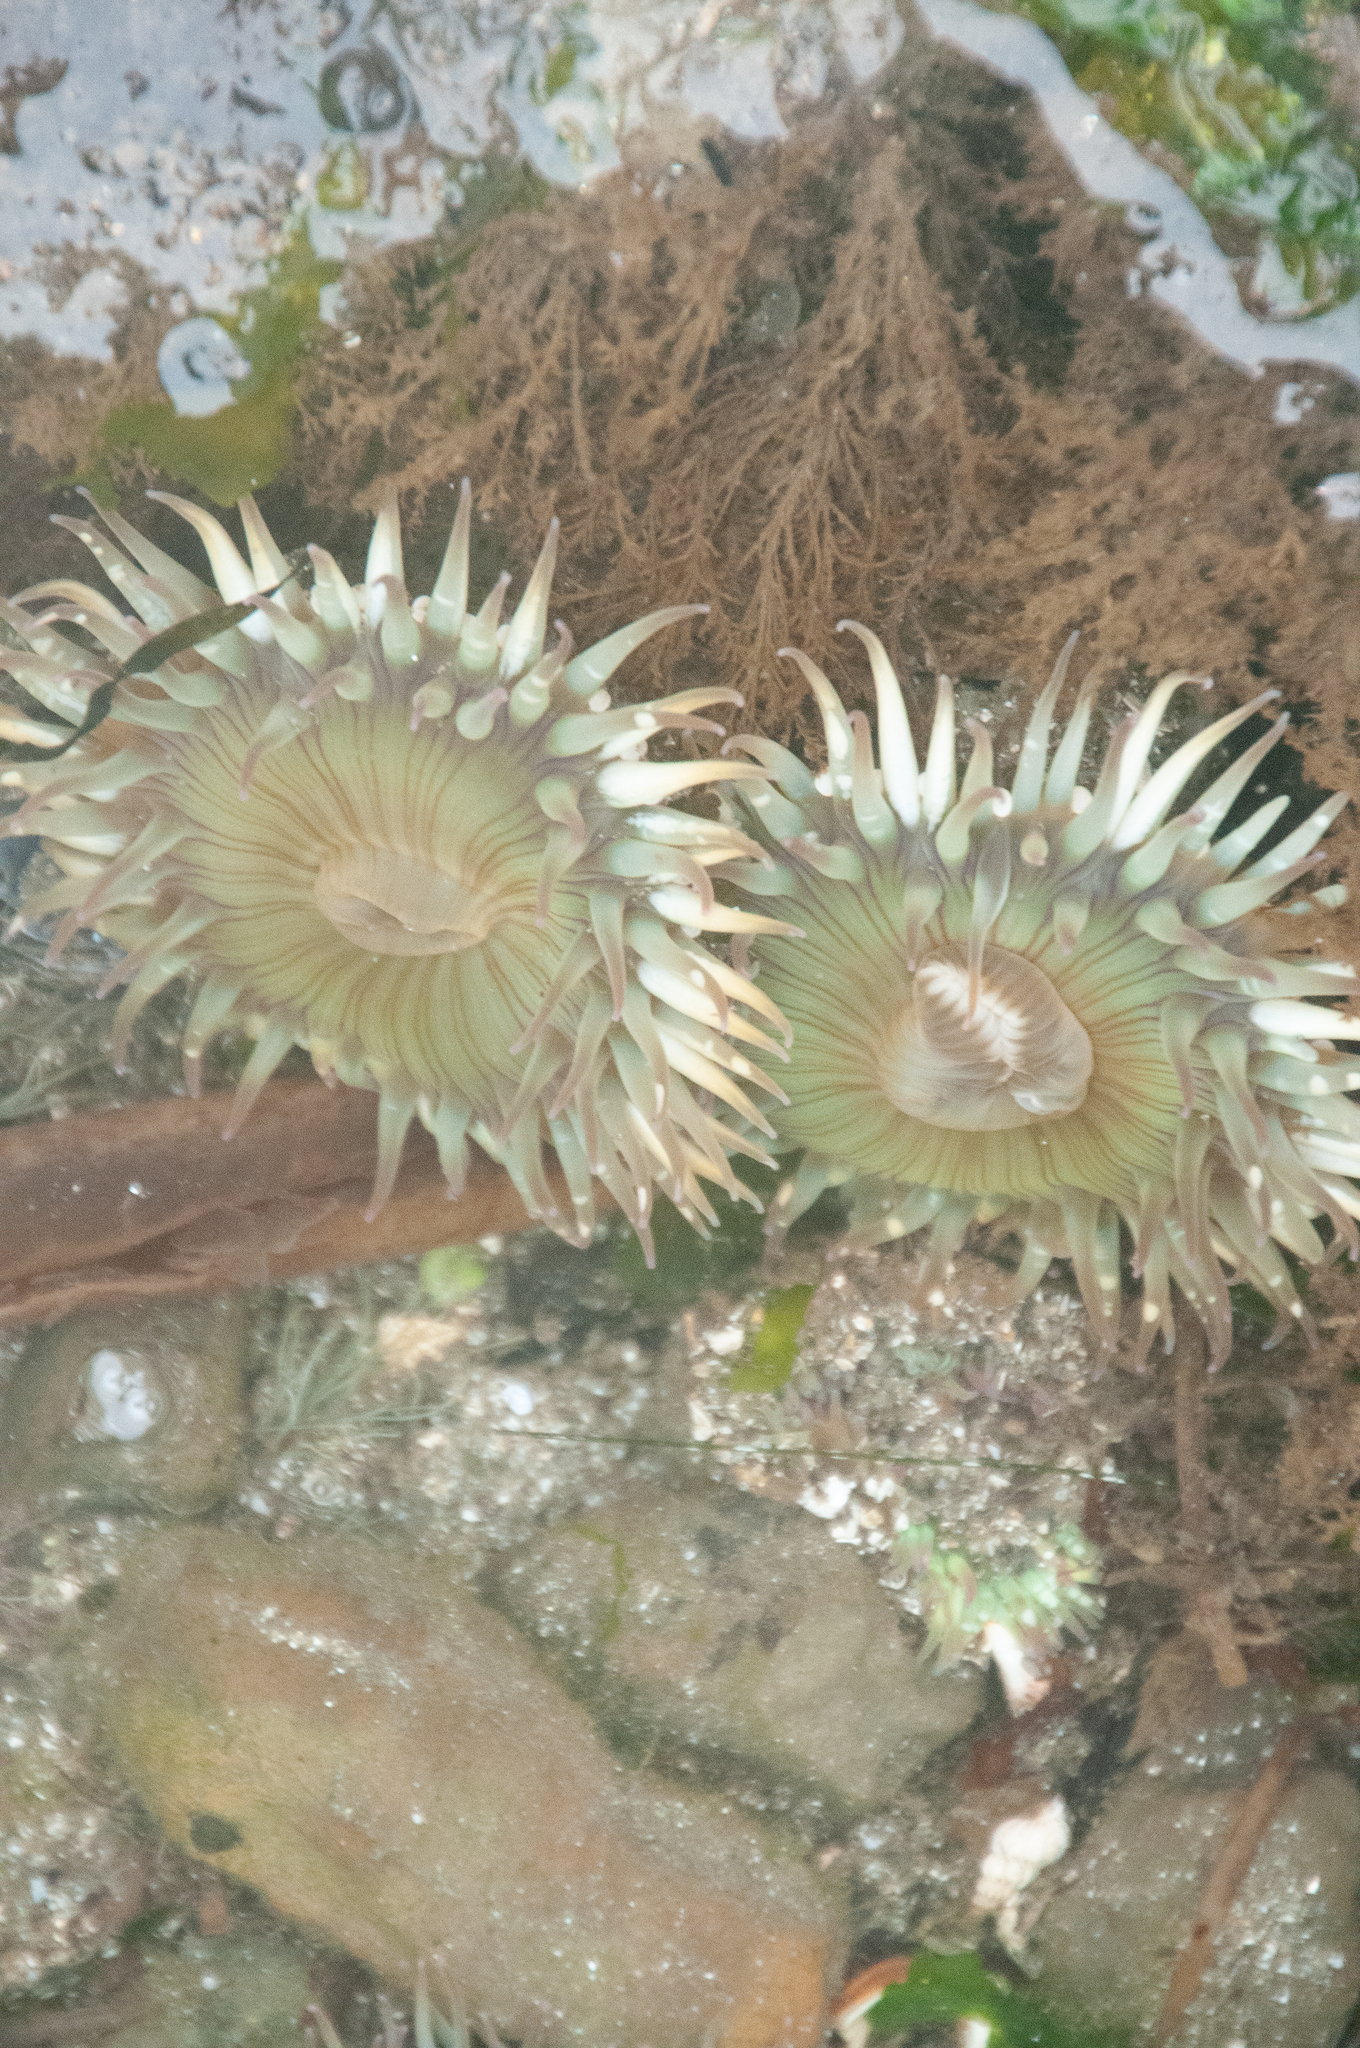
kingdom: Animalia
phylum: Cnidaria
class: Anthozoa
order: Actiniaria
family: Actiniidae
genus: Anthopleura
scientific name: Anthopleura elegantissima
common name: Clonal anemone
